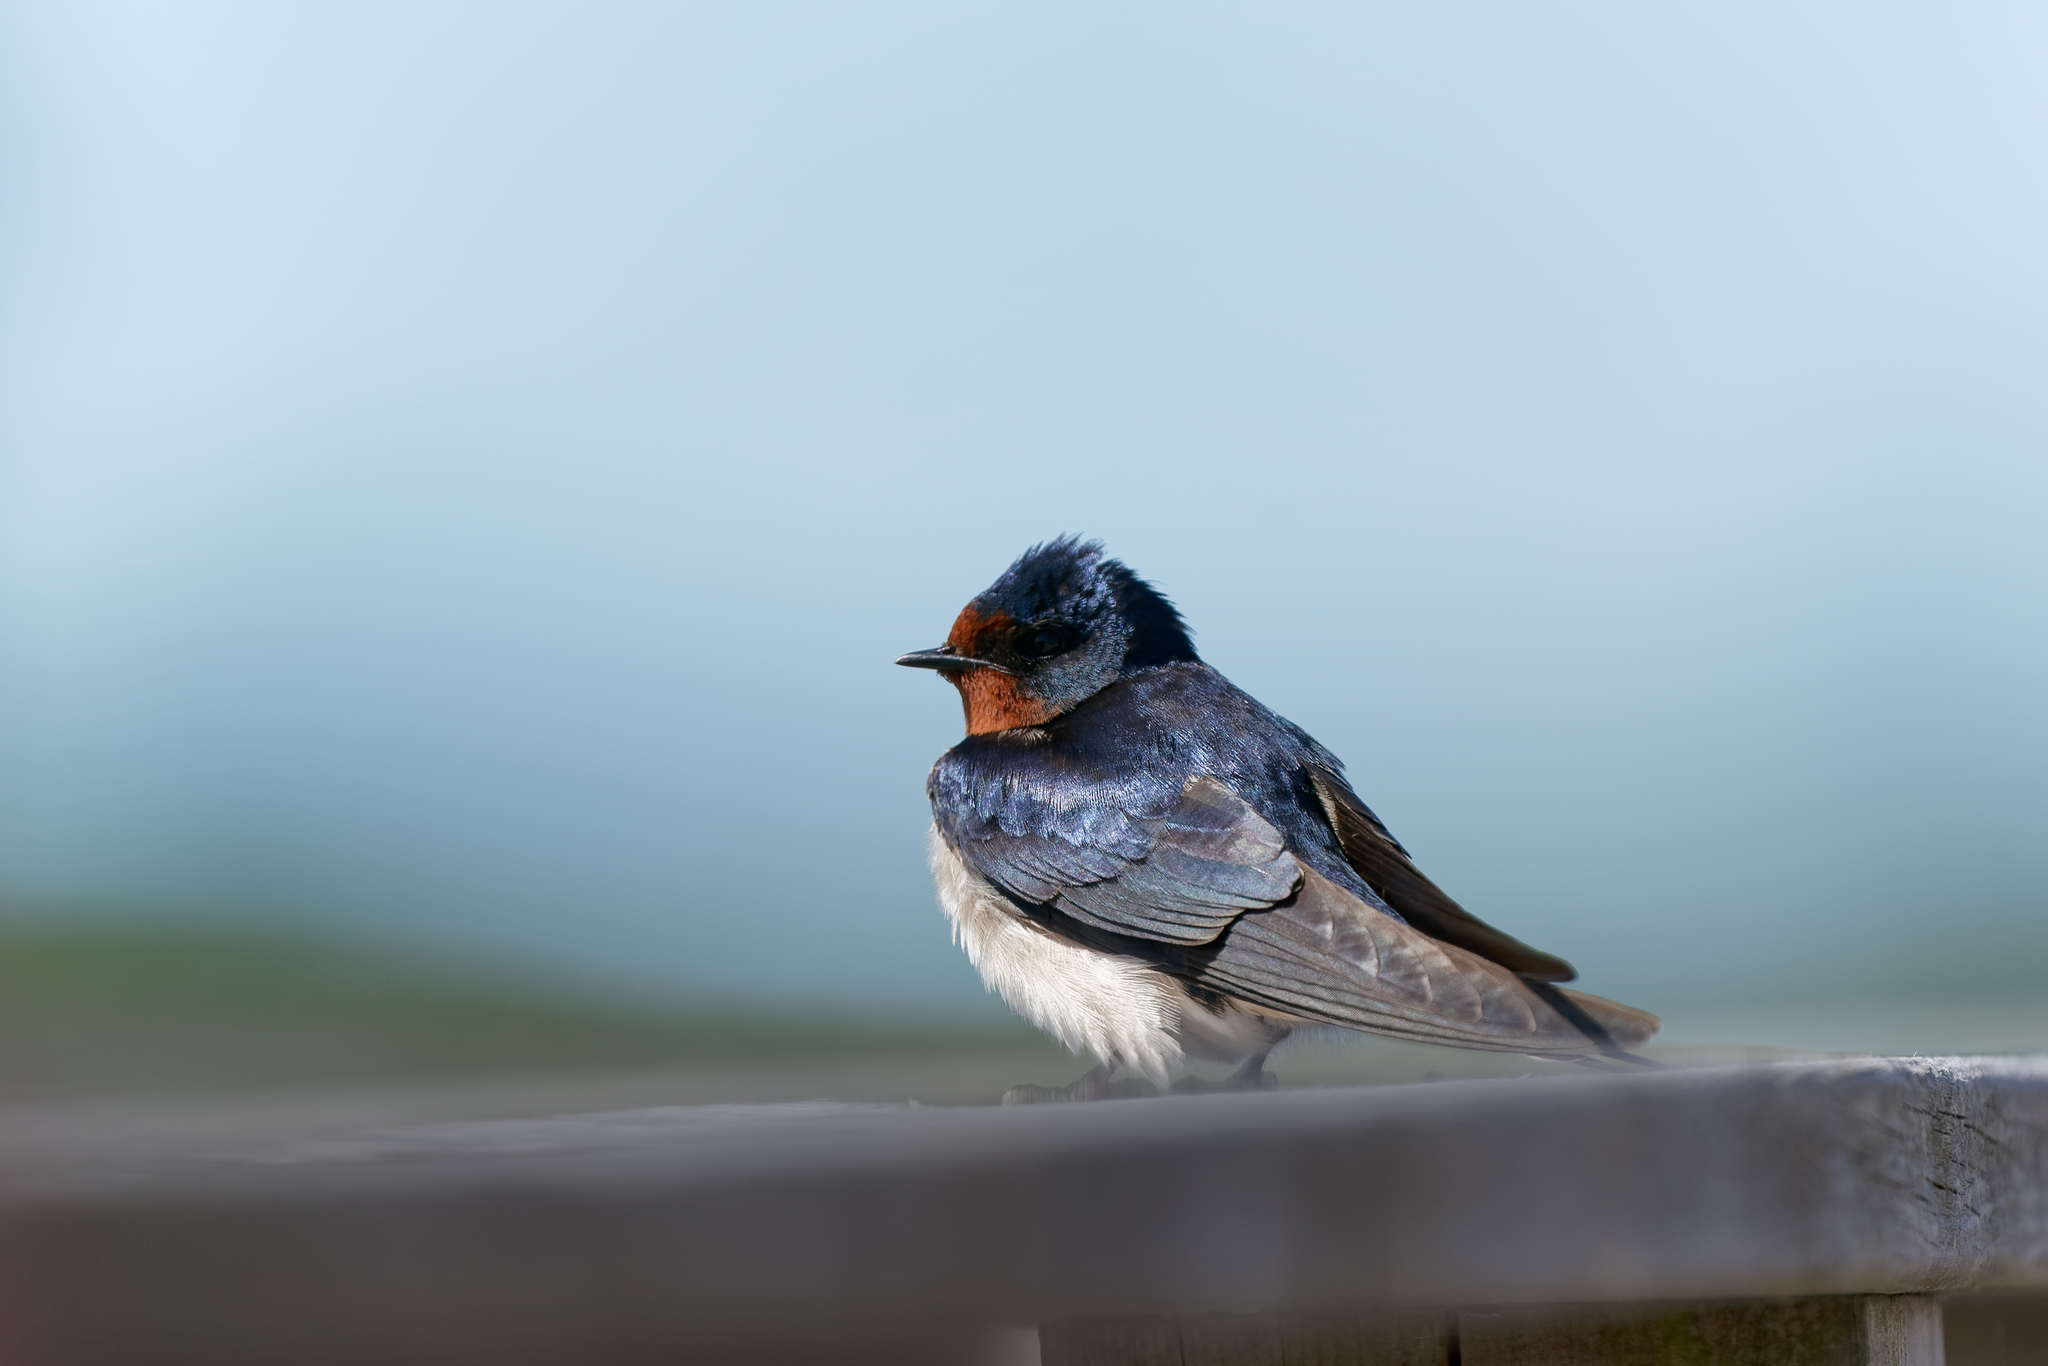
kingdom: Animalia
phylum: Chordata
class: Aves
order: Passeriformes
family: Hirundinidae
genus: Hirundo
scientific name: Hirundo rustica
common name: Barn swallow
